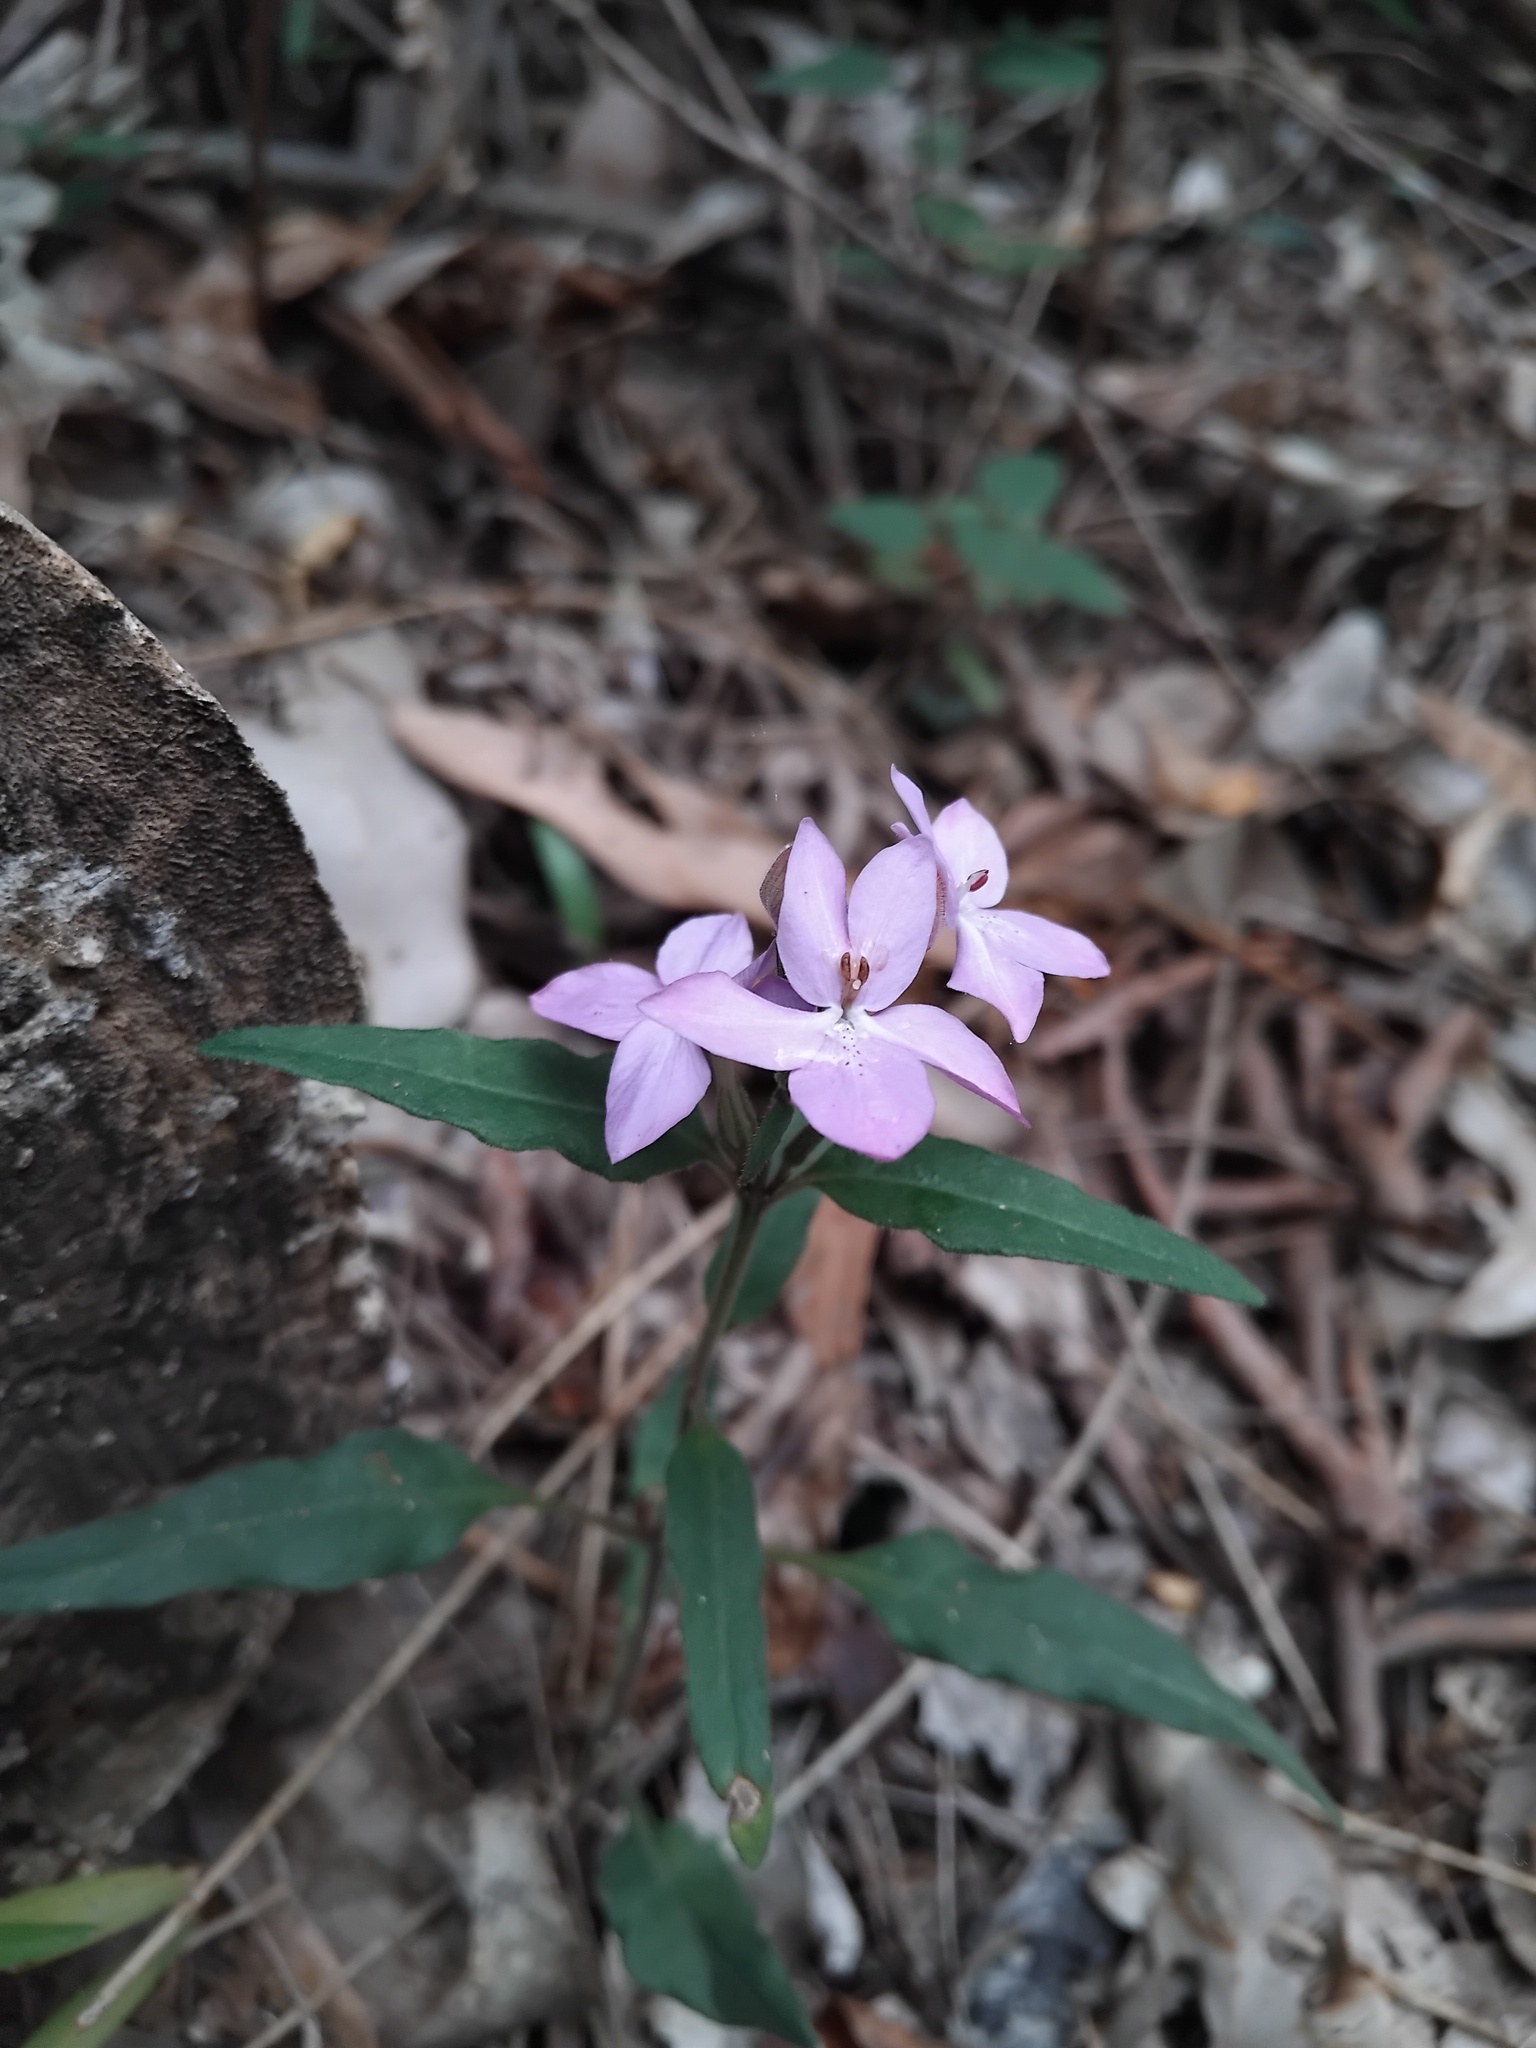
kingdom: Plantae
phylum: Tracheophyta
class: Magnoliopsida
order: Lamiales
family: Acanthaceae
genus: Pseuderanthemum
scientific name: Pseuderanthemum variabile
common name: Night and afternoon
